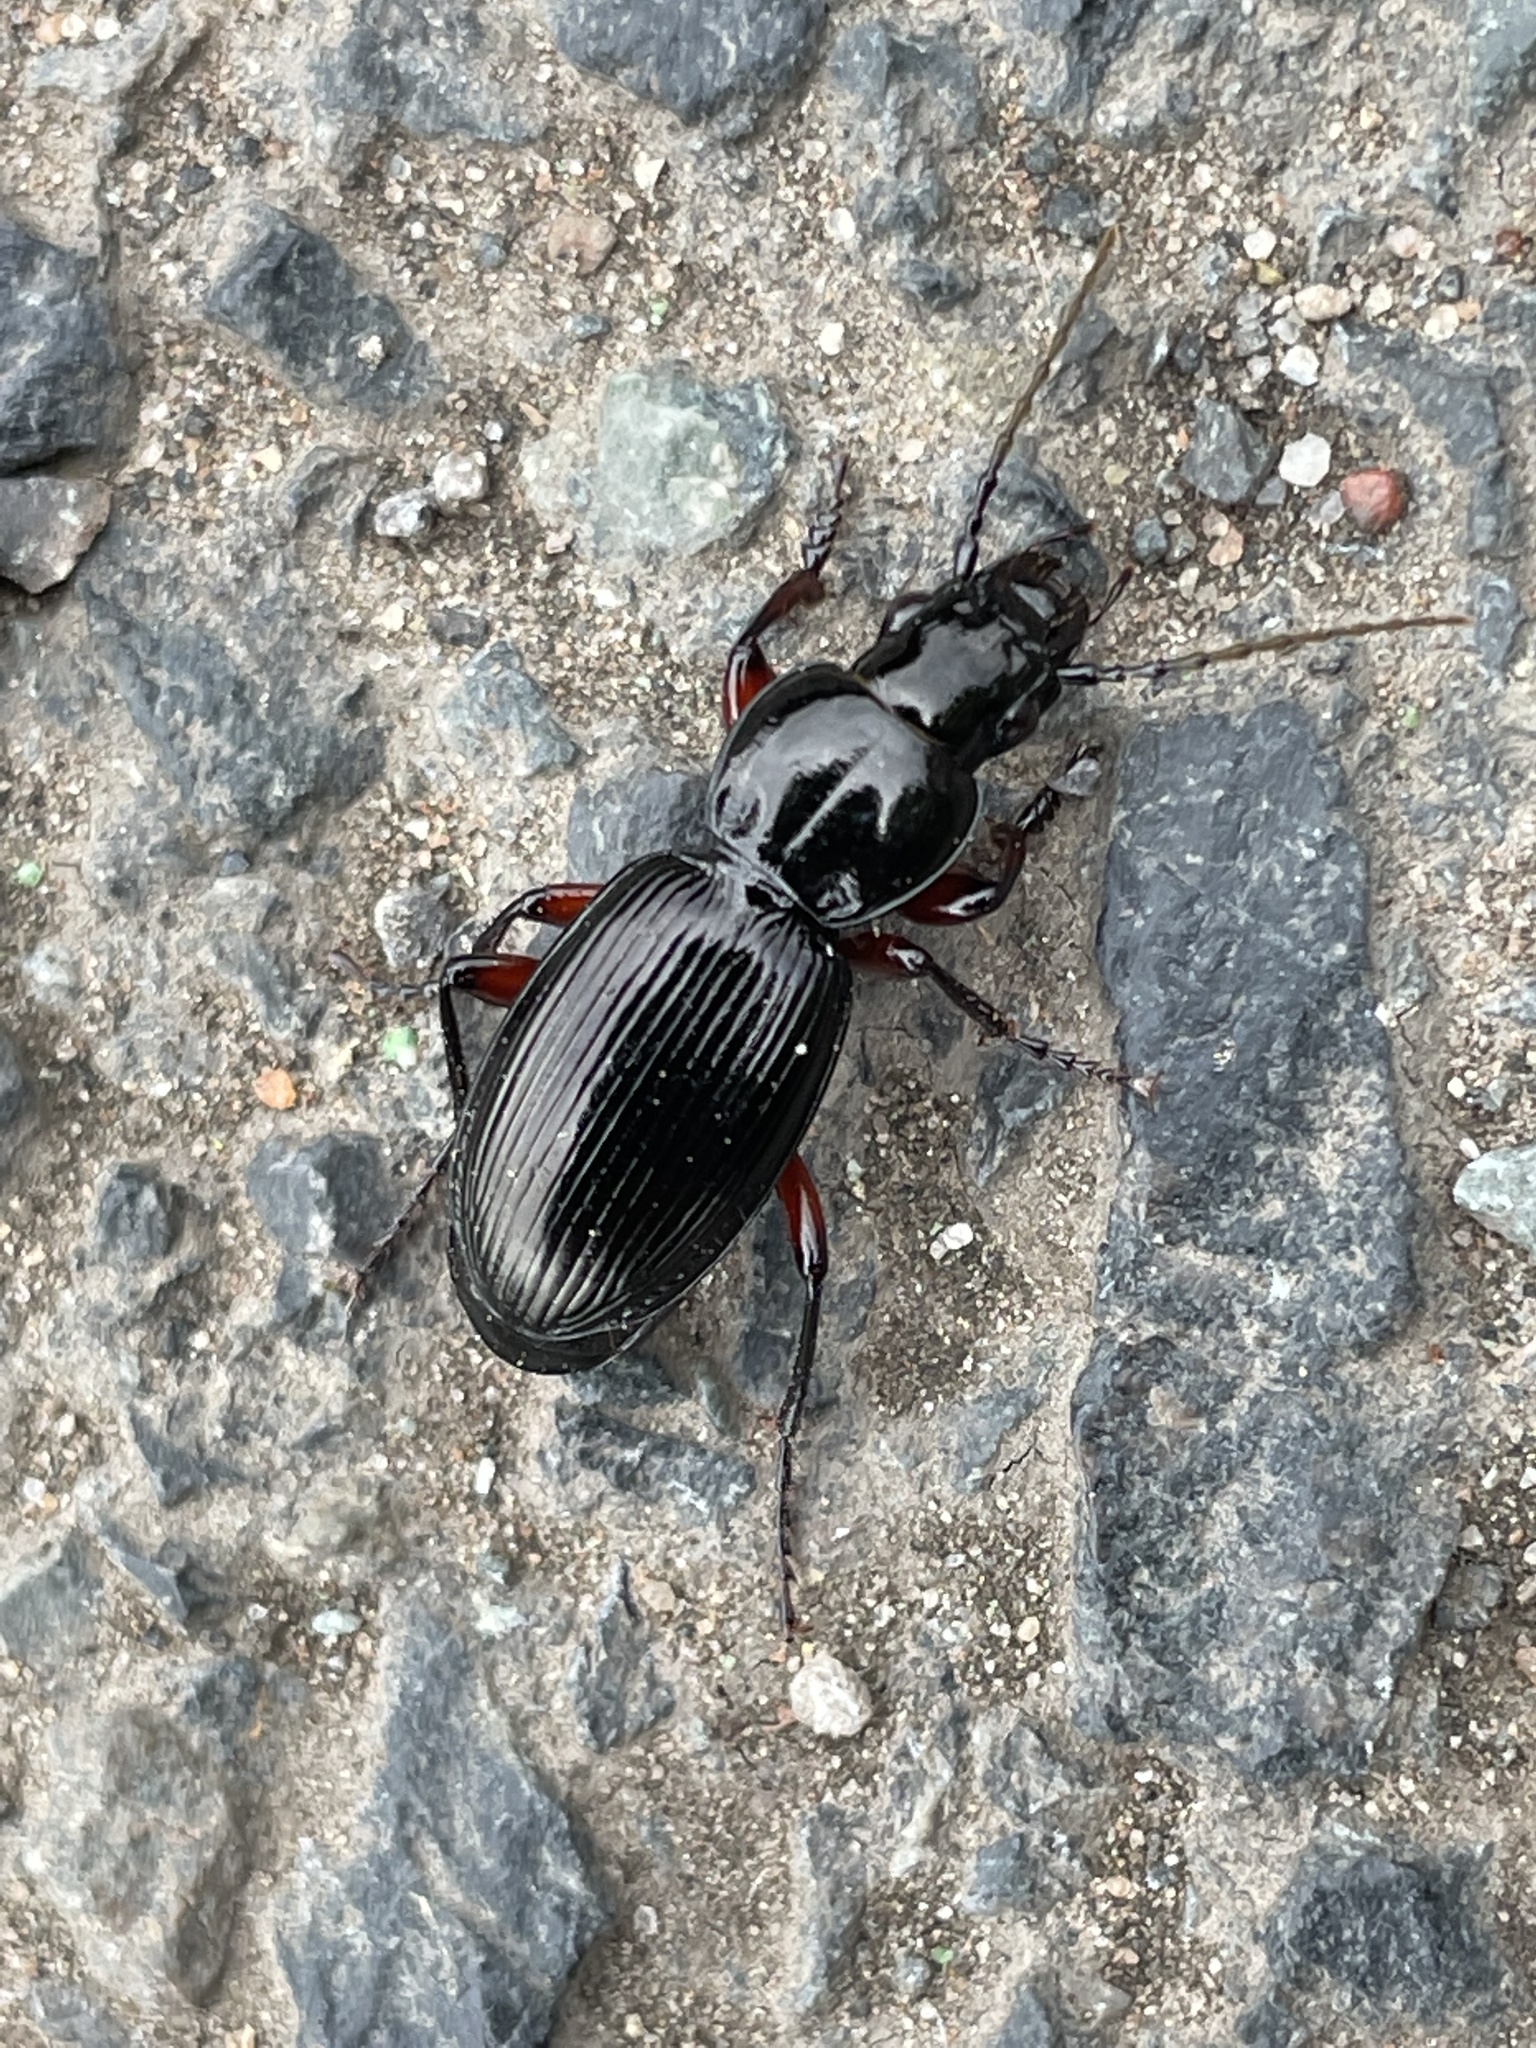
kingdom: Animalia
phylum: Arthropoda
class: Insecta
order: Coleoptera
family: Carabidae
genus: Pterostichus
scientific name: Pterostichus madidus
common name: Black clock
